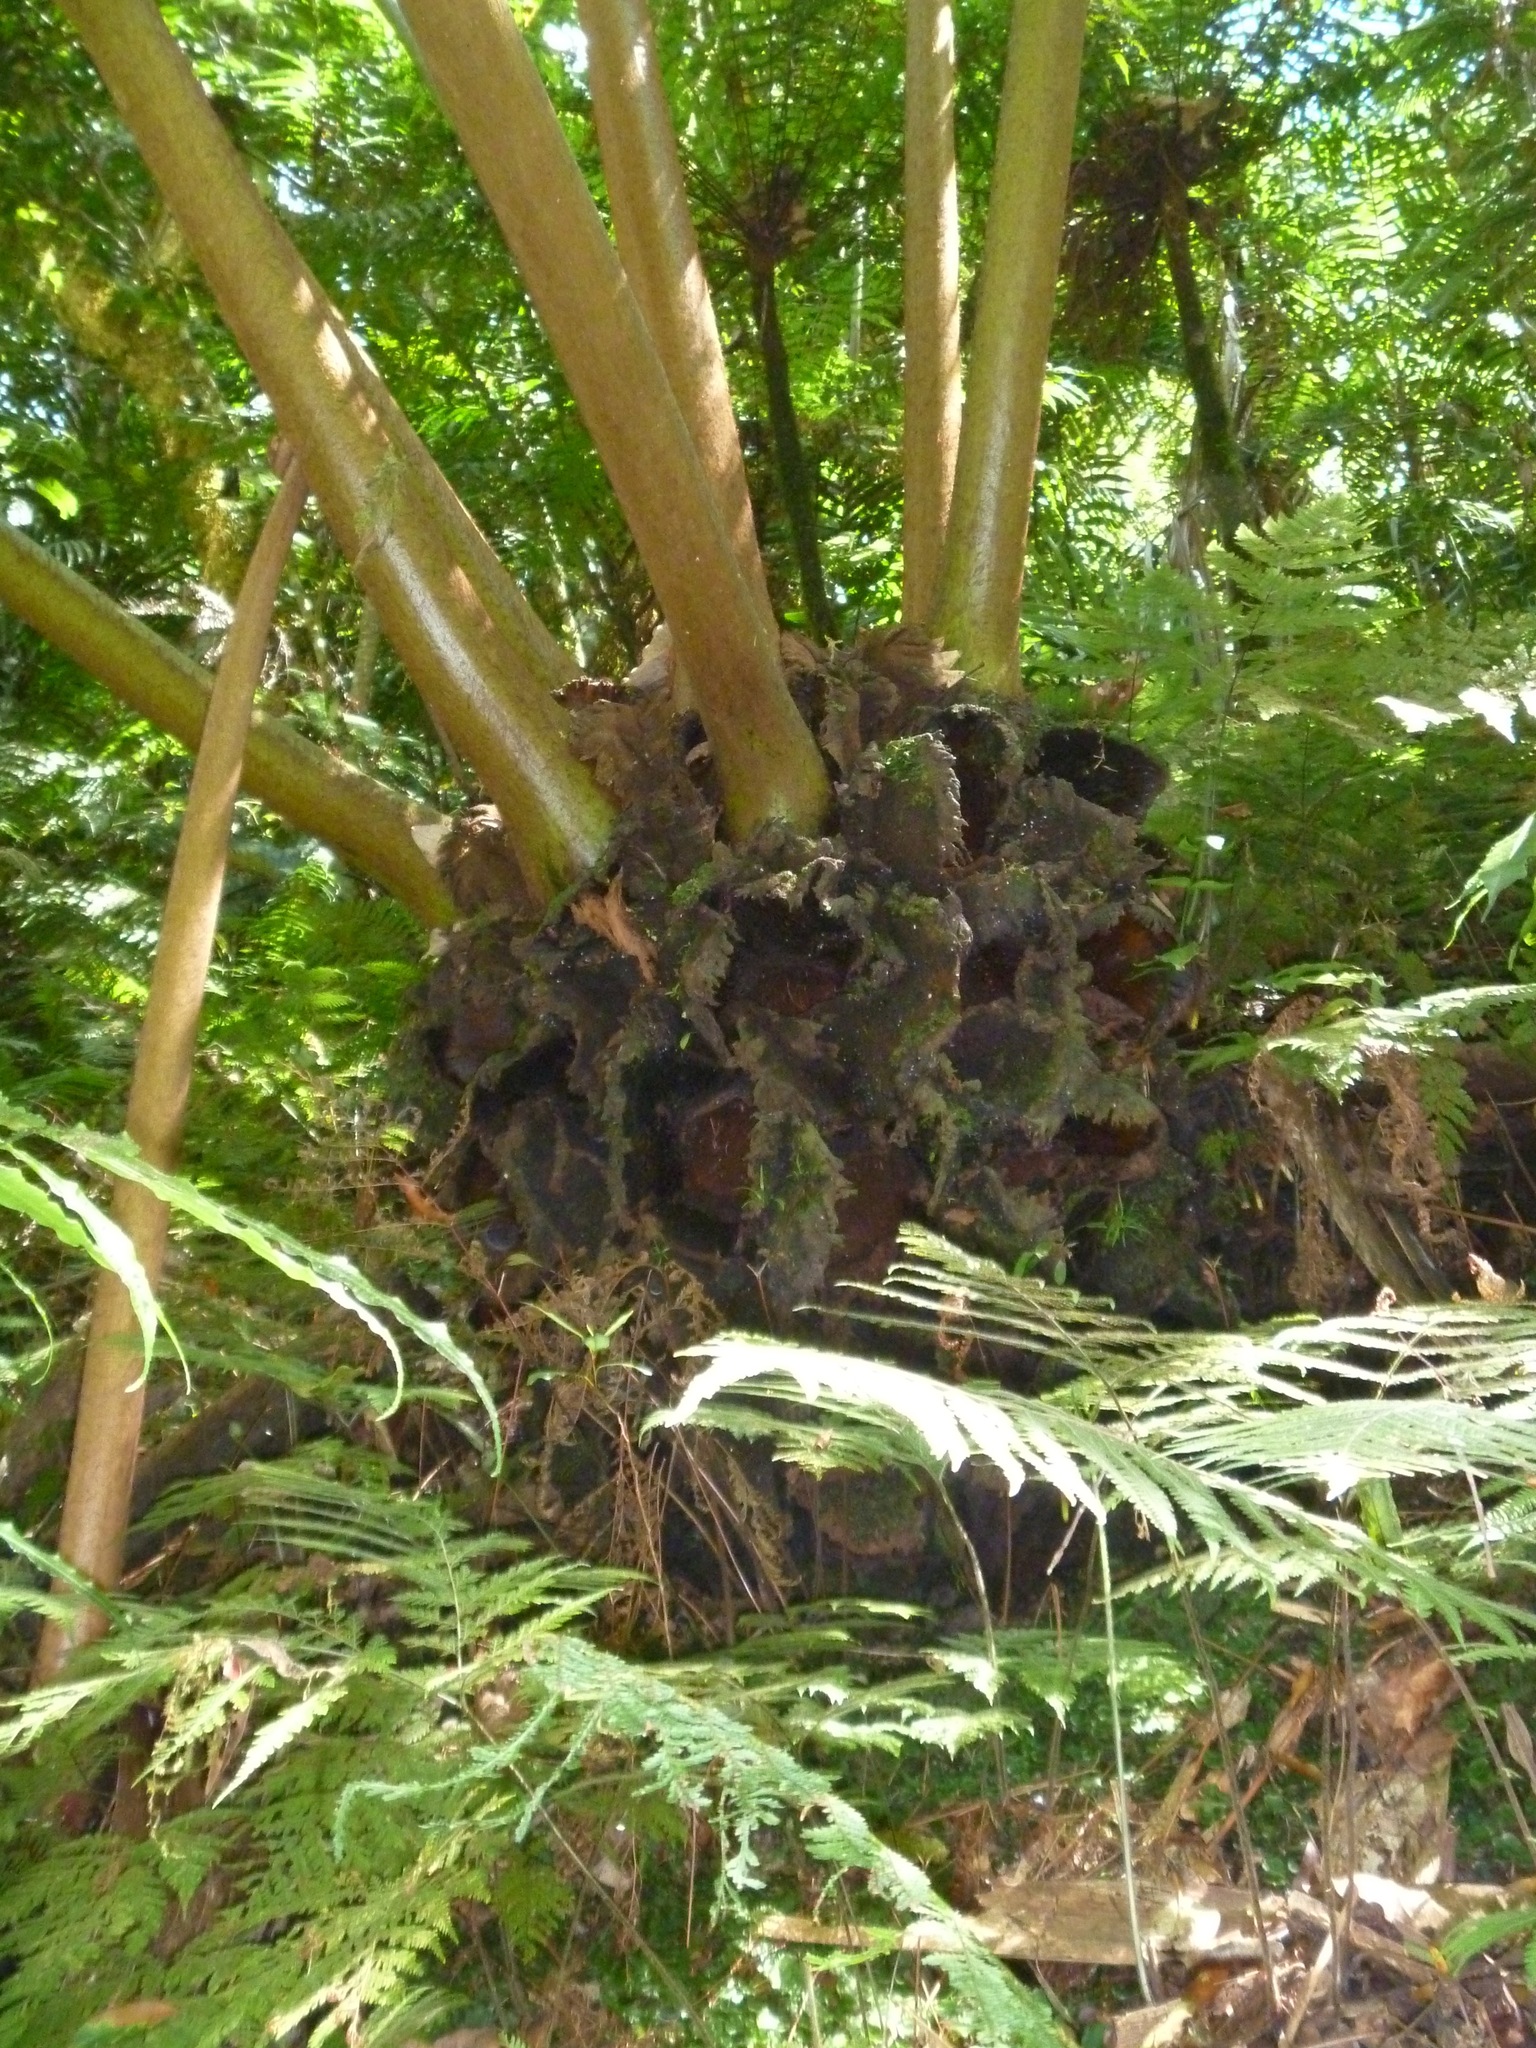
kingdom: Plantae
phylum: Tracheophyta
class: Polypodiopsida
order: Marattiales
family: Marattiaceae
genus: Angiopteris
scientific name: Angiopteris evecta
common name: Mule's-foot fern
